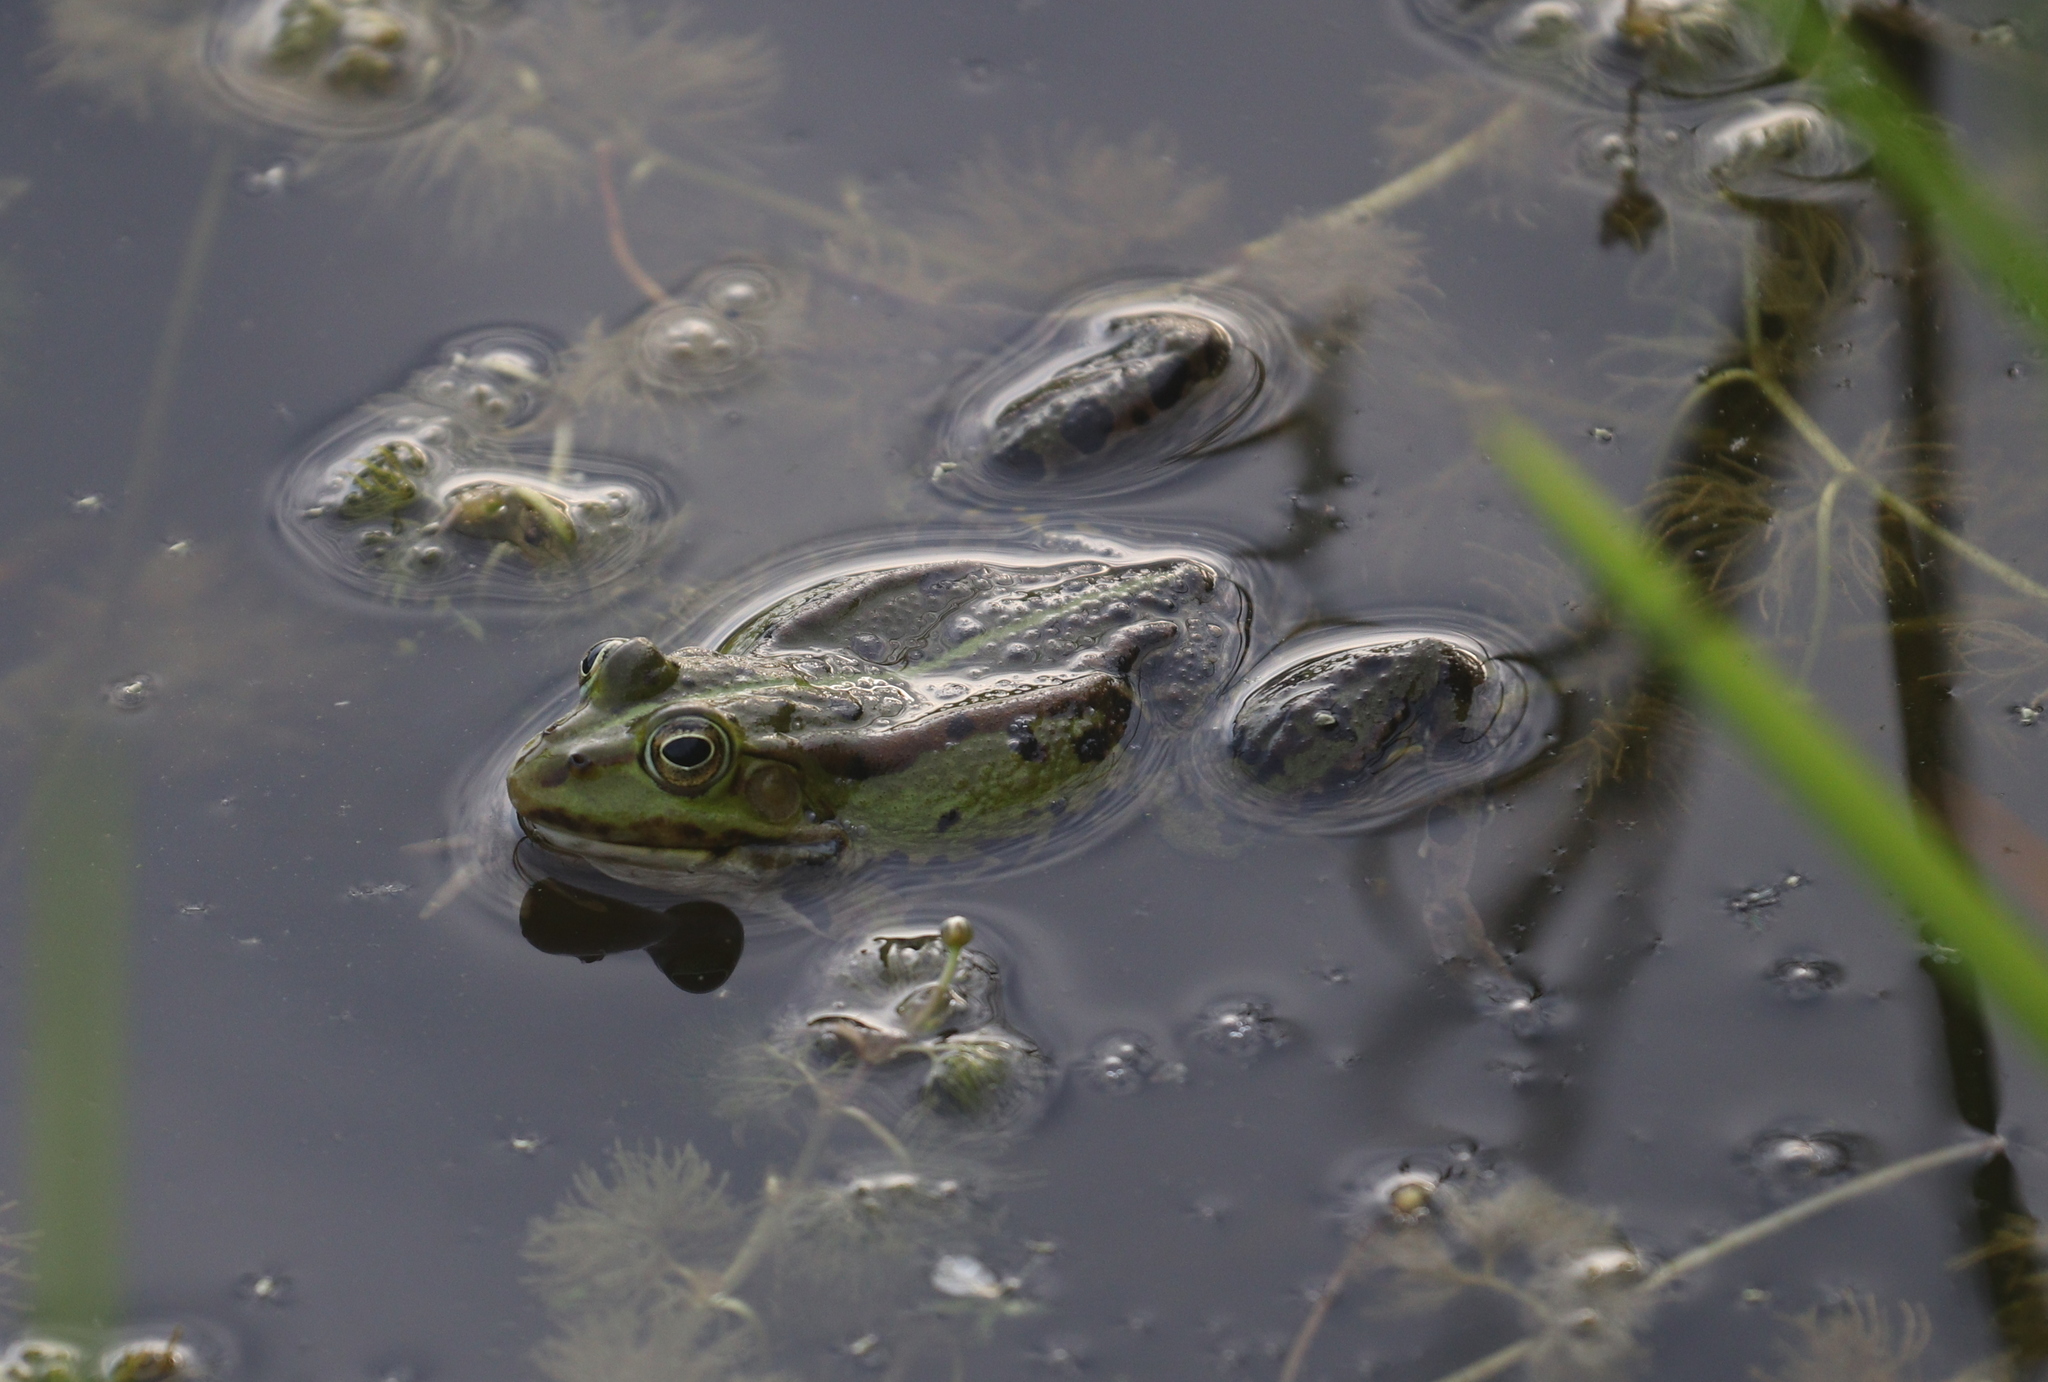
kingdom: Animalia
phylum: Chordata
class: Amphibia
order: Anura
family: Ranidae
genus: Pelophylax
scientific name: Pelophylax
